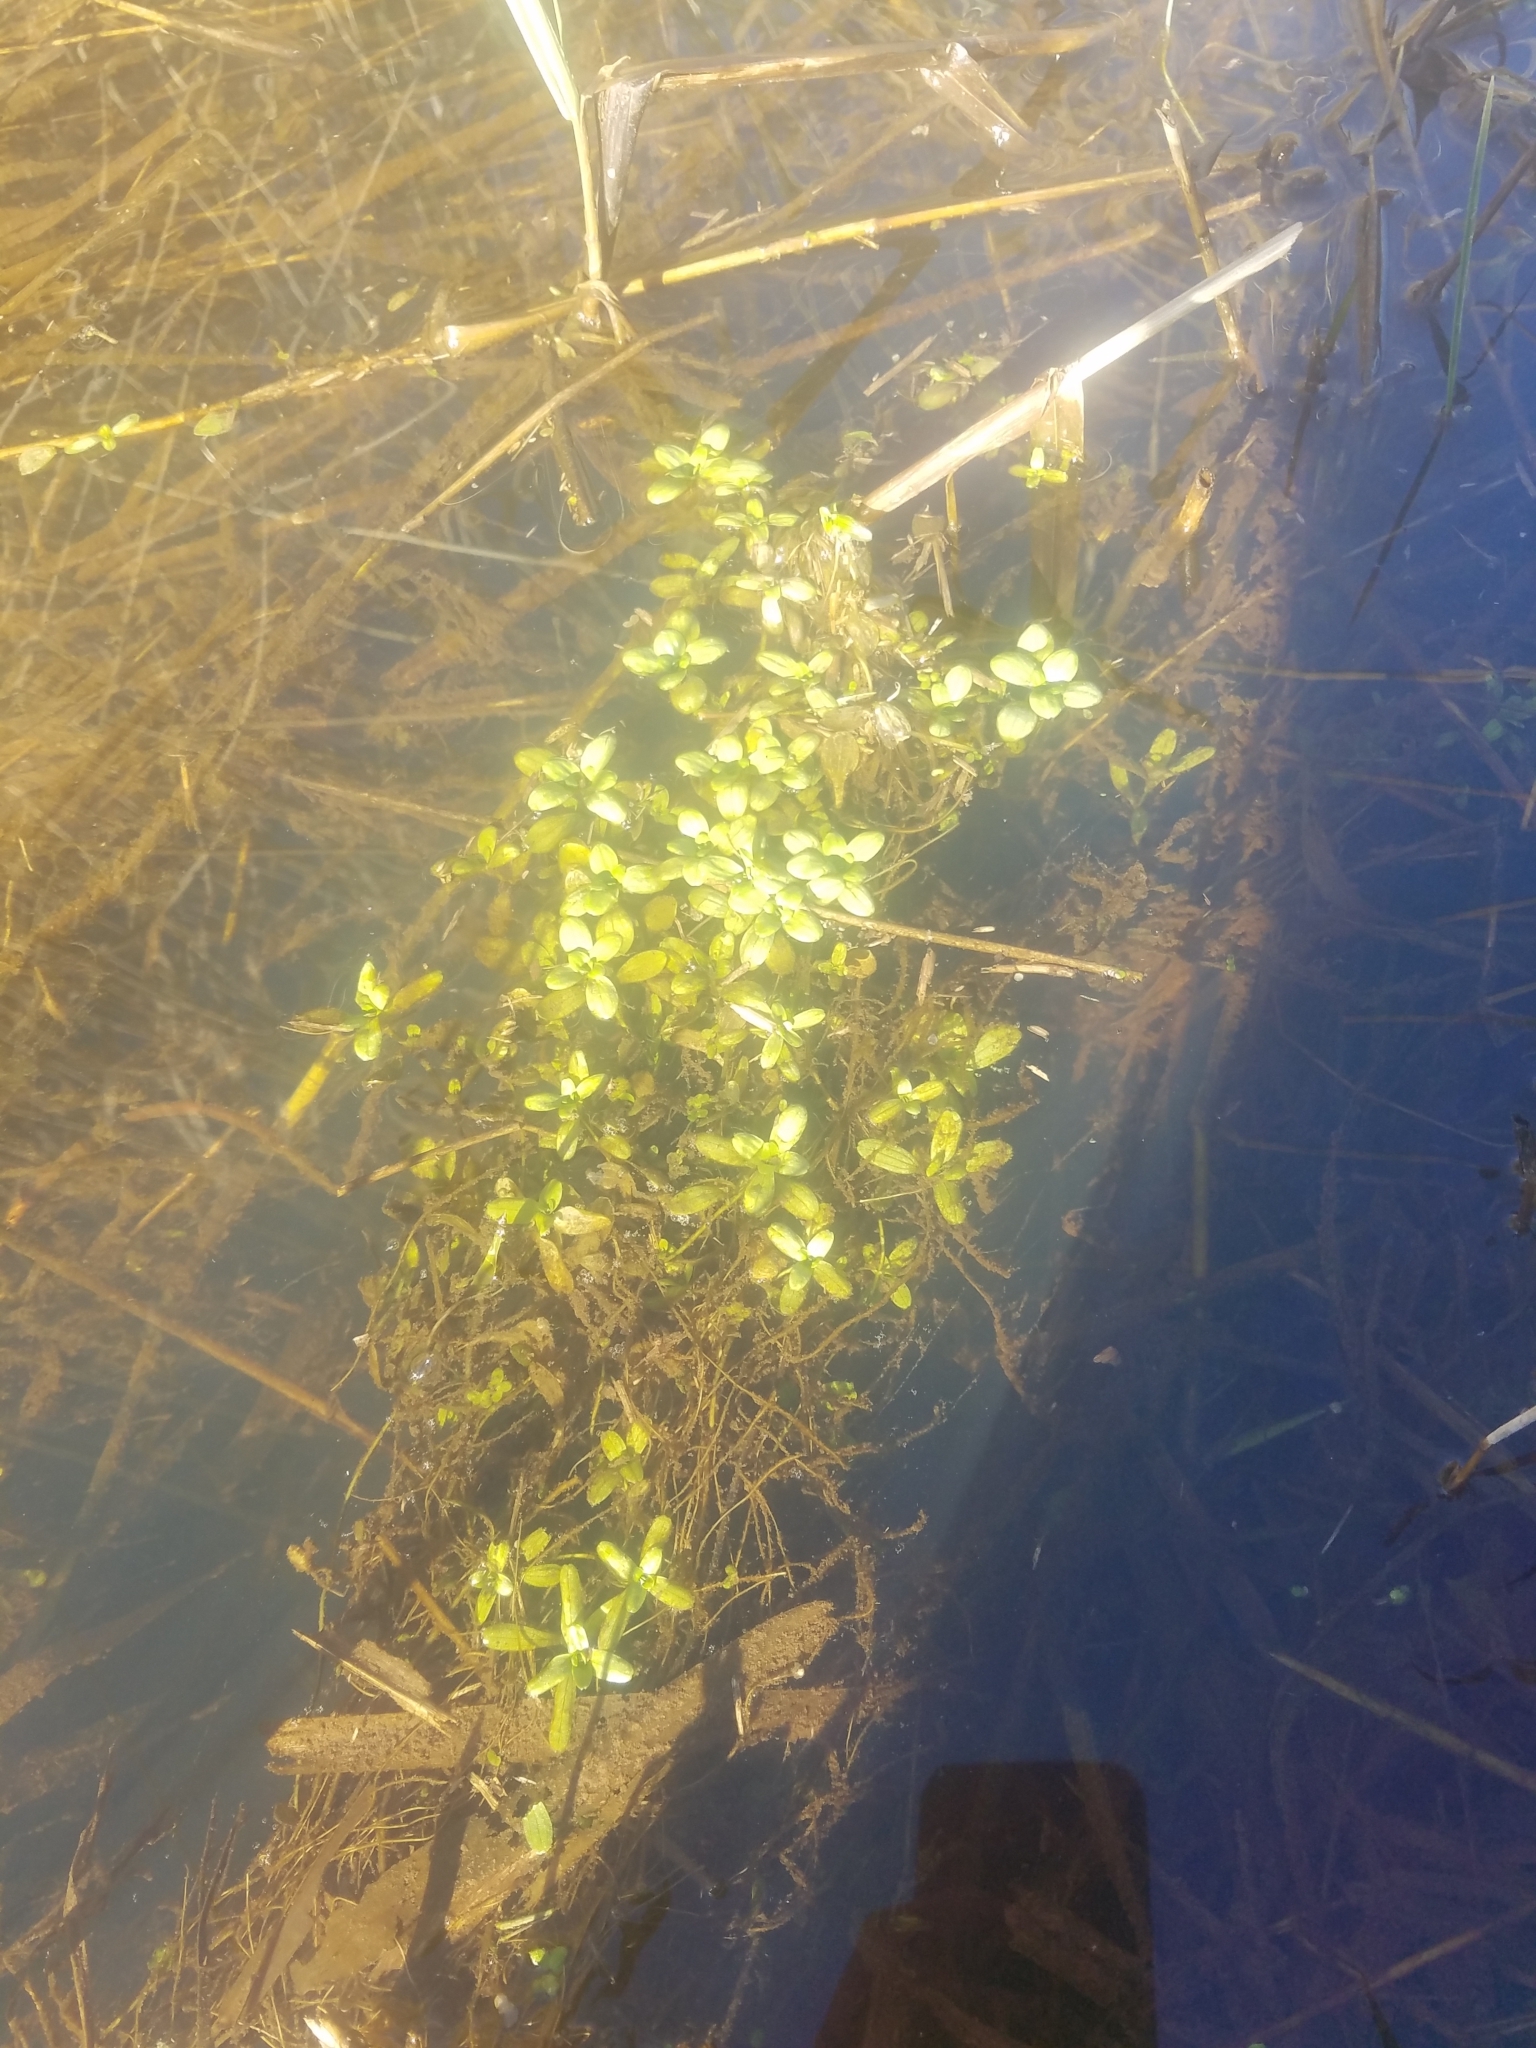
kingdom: Plantae
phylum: Tracheophyta
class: Magnoliopsida
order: Lamiales
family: Plantaginaceae
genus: Callitriche
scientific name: Callitriche stagnalis
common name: Common water-starwort
